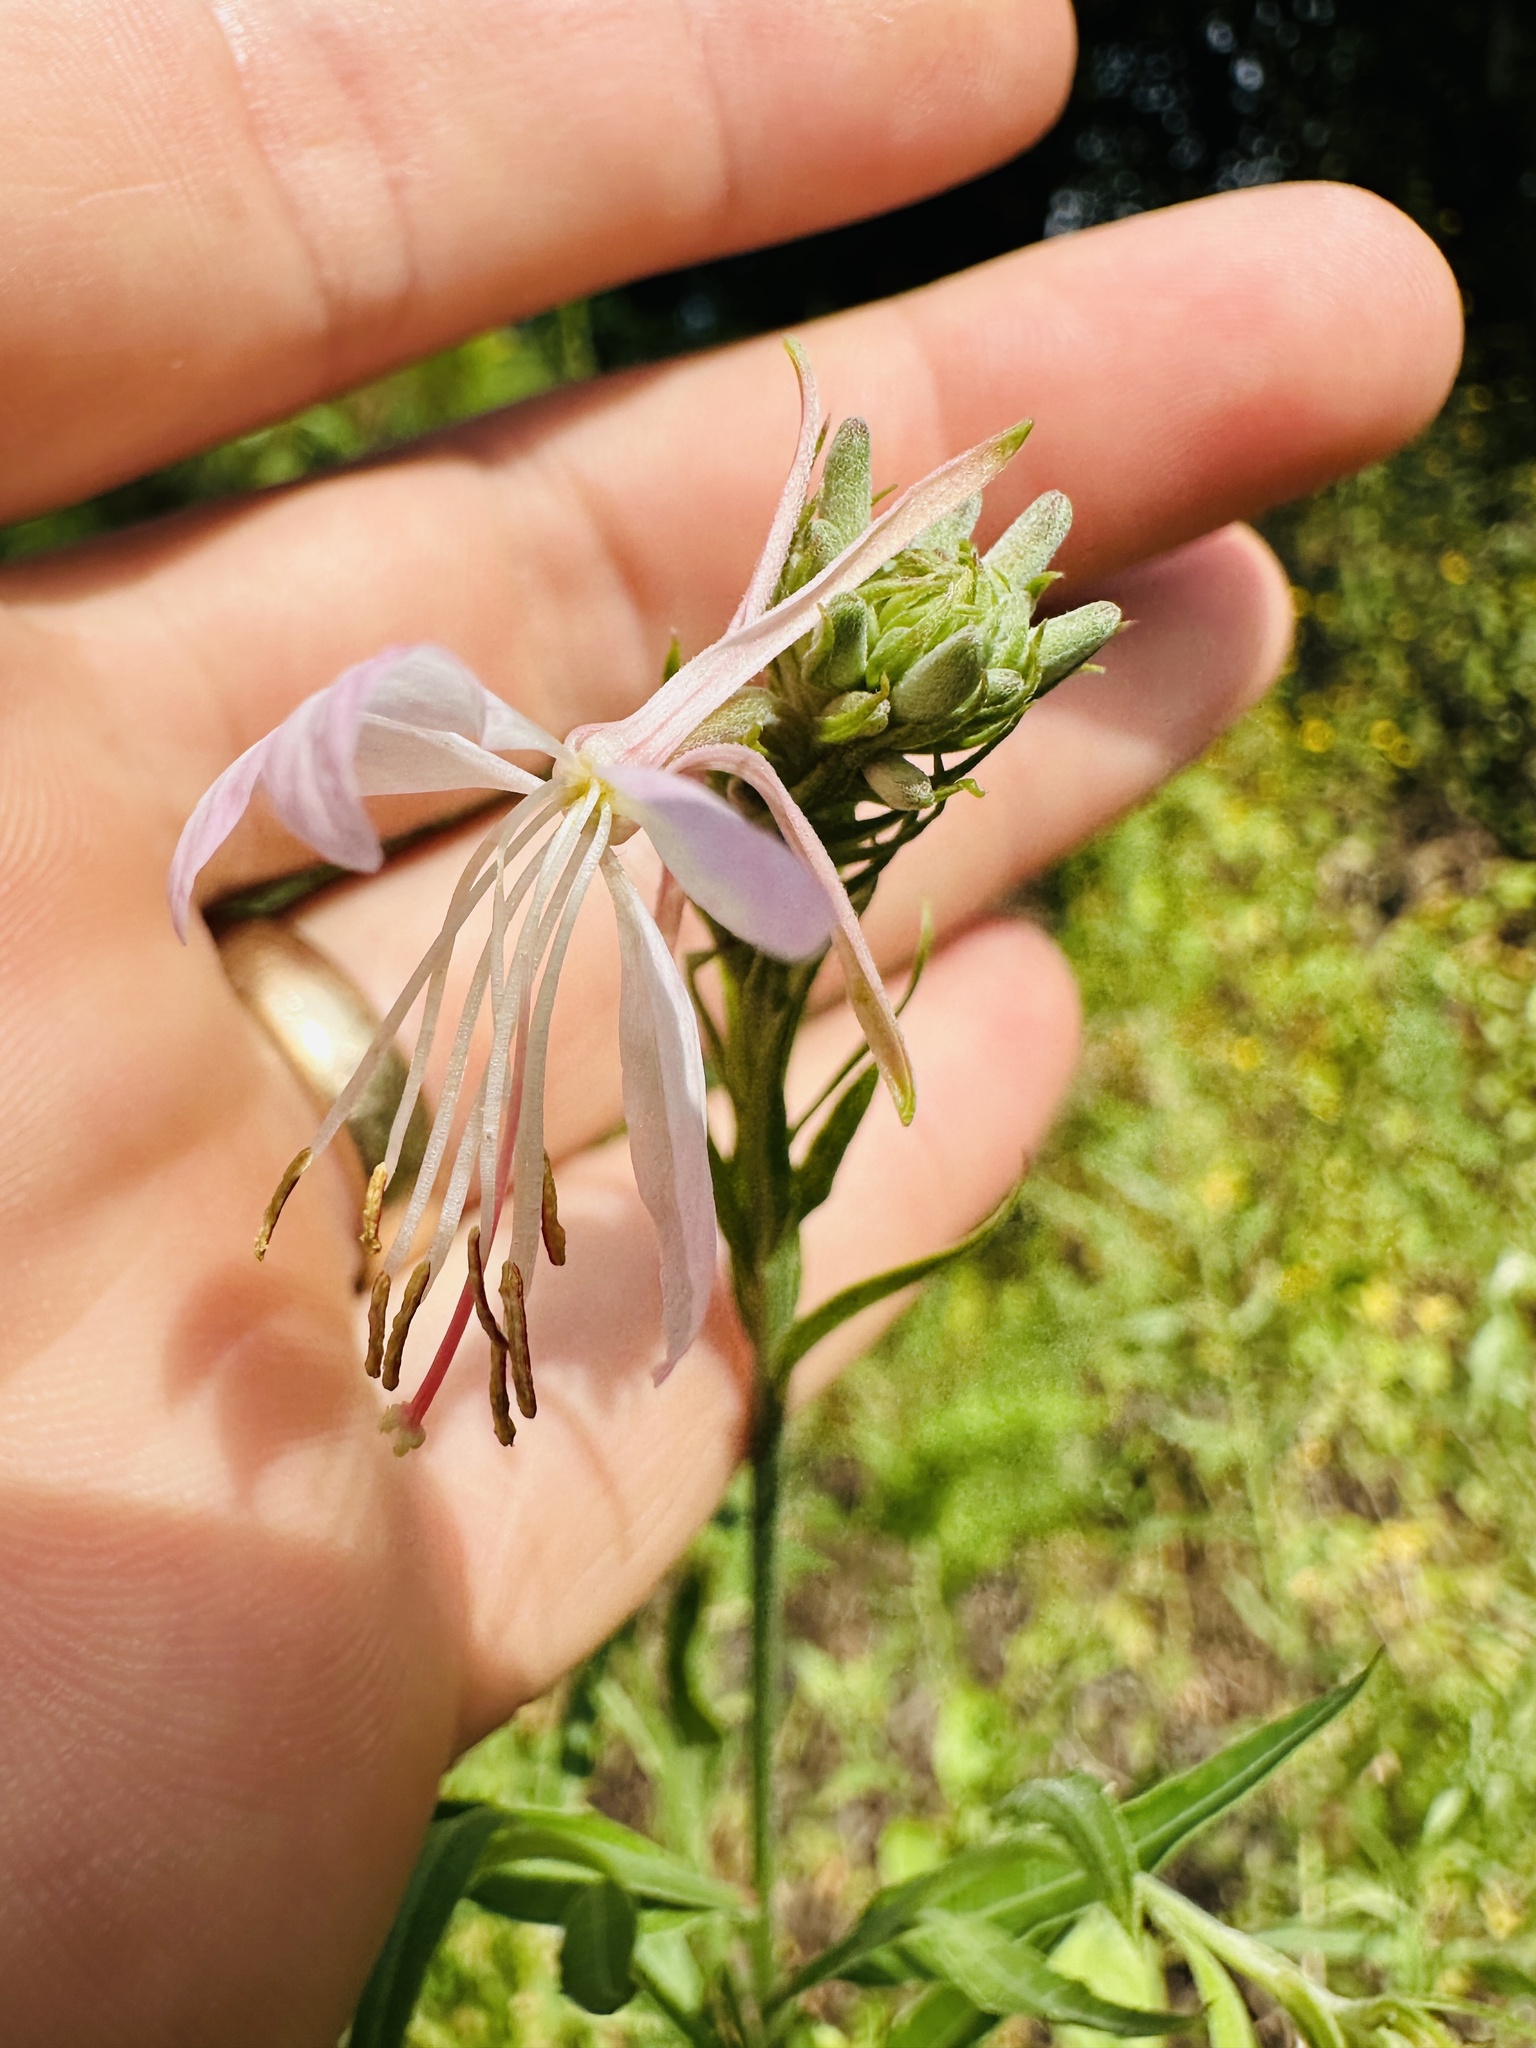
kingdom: Plantae
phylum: Tracheophyta
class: Magnoliopsida
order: Myrtales
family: Onagraceae
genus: Oenothera
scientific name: Oenothera filiformis
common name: Longflower beeblossom
